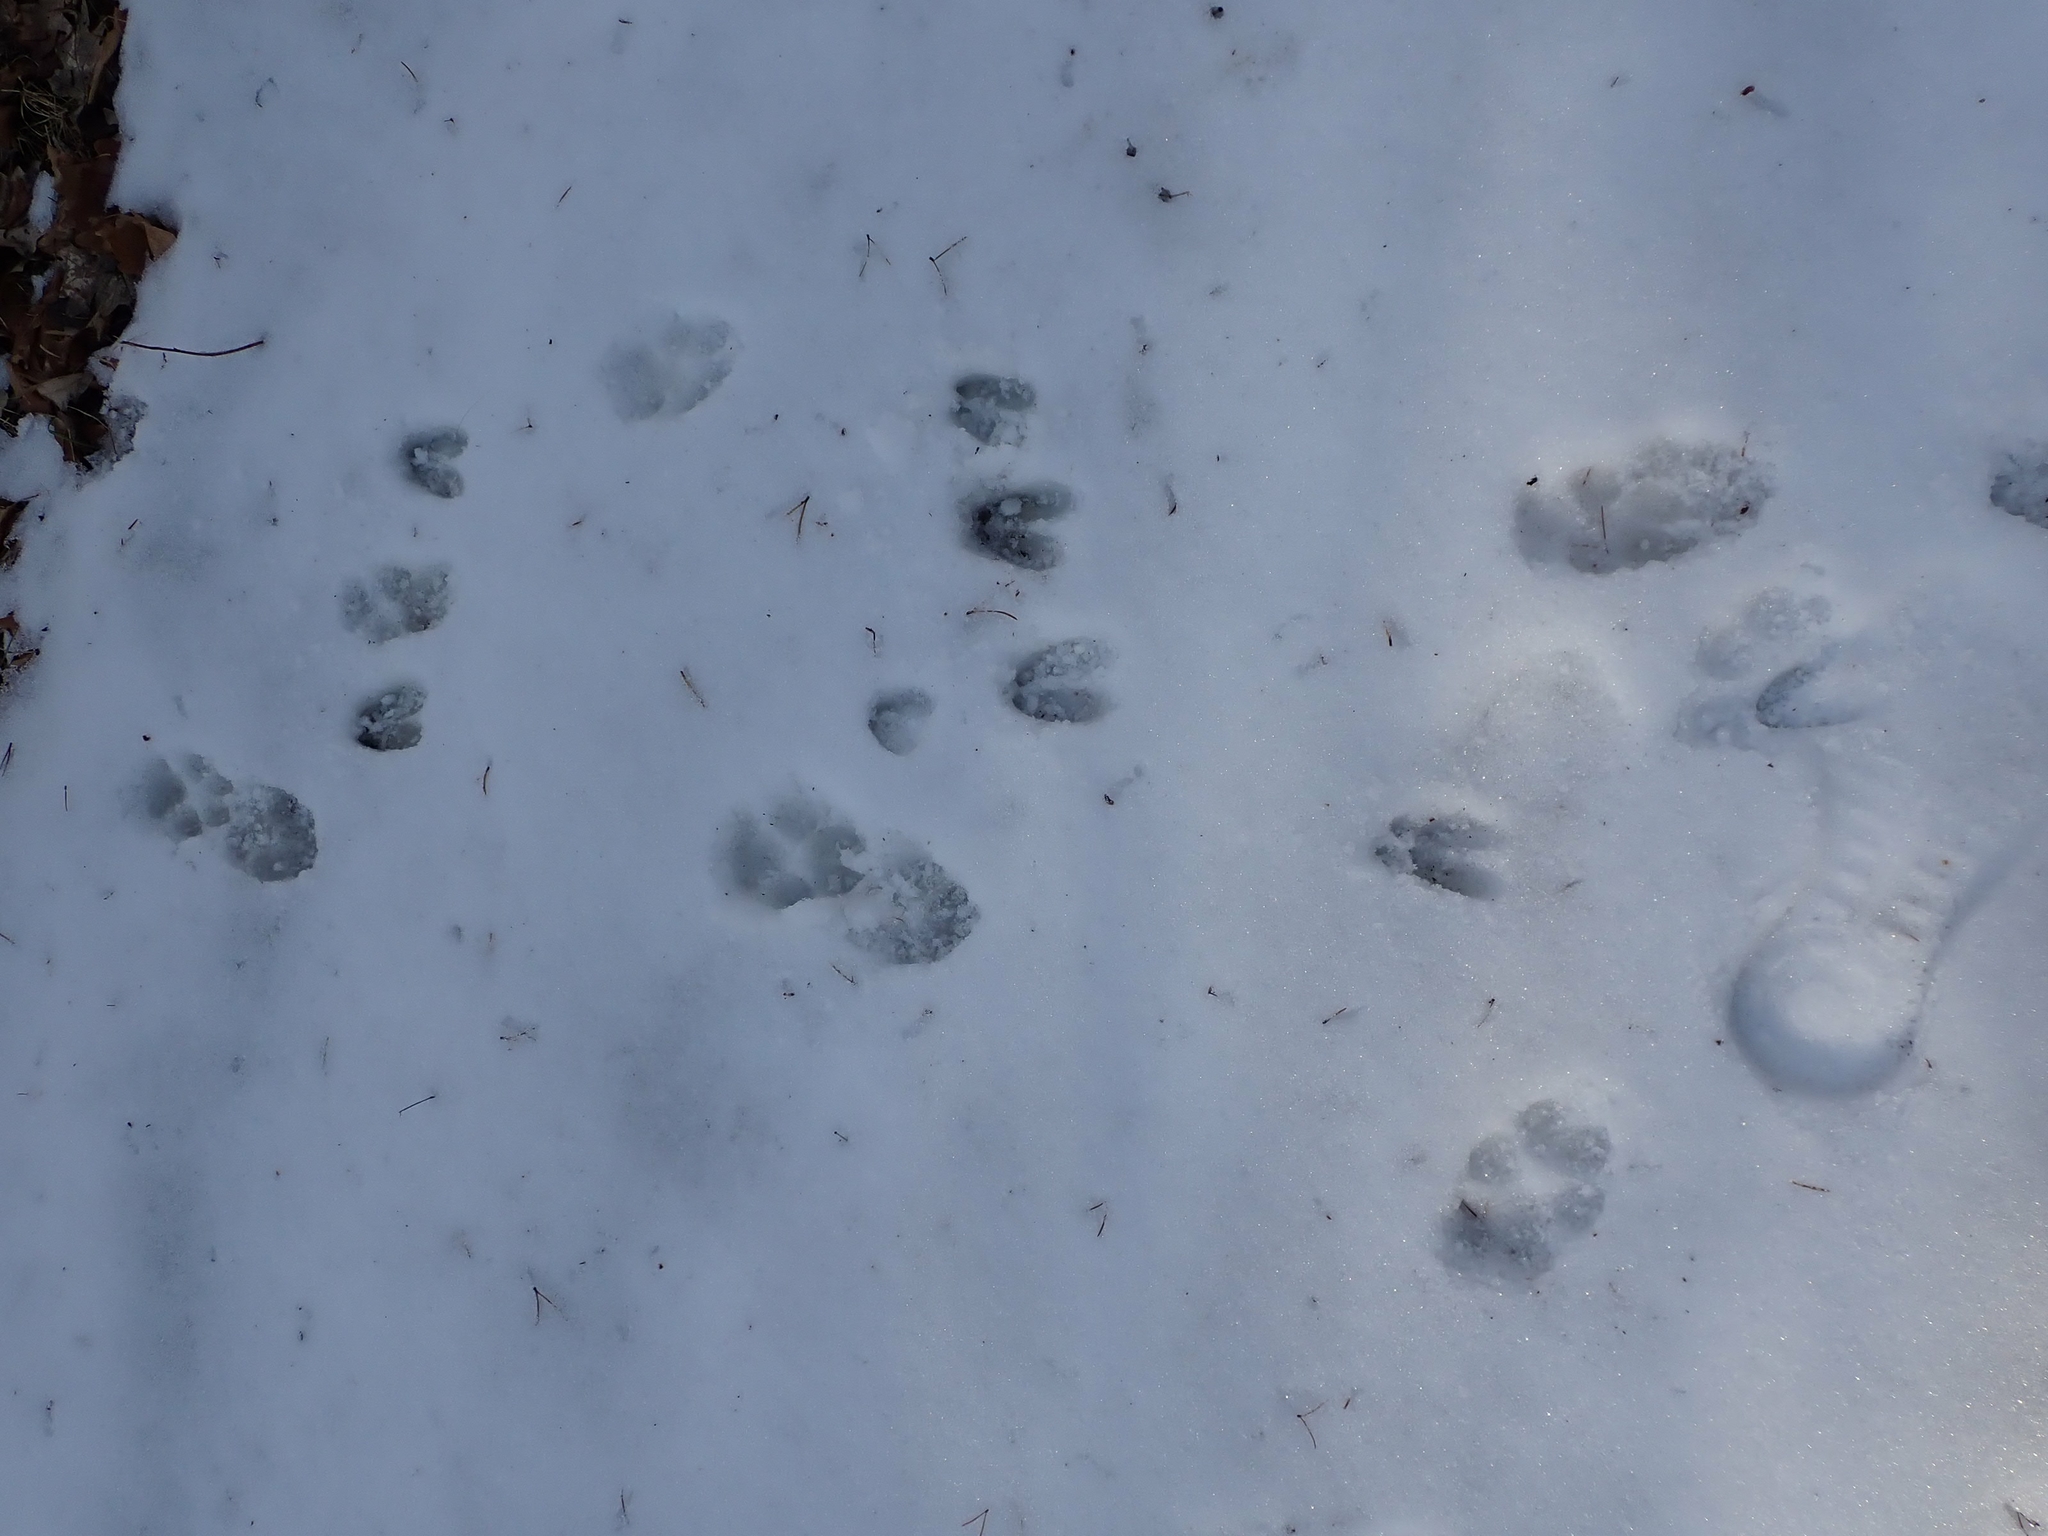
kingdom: Animalia
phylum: Chordata
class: Mammalia
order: Artiodactyla
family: Cervidae
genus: Odocoileus
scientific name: Odocoileus virginianus
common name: White-tailed deer
